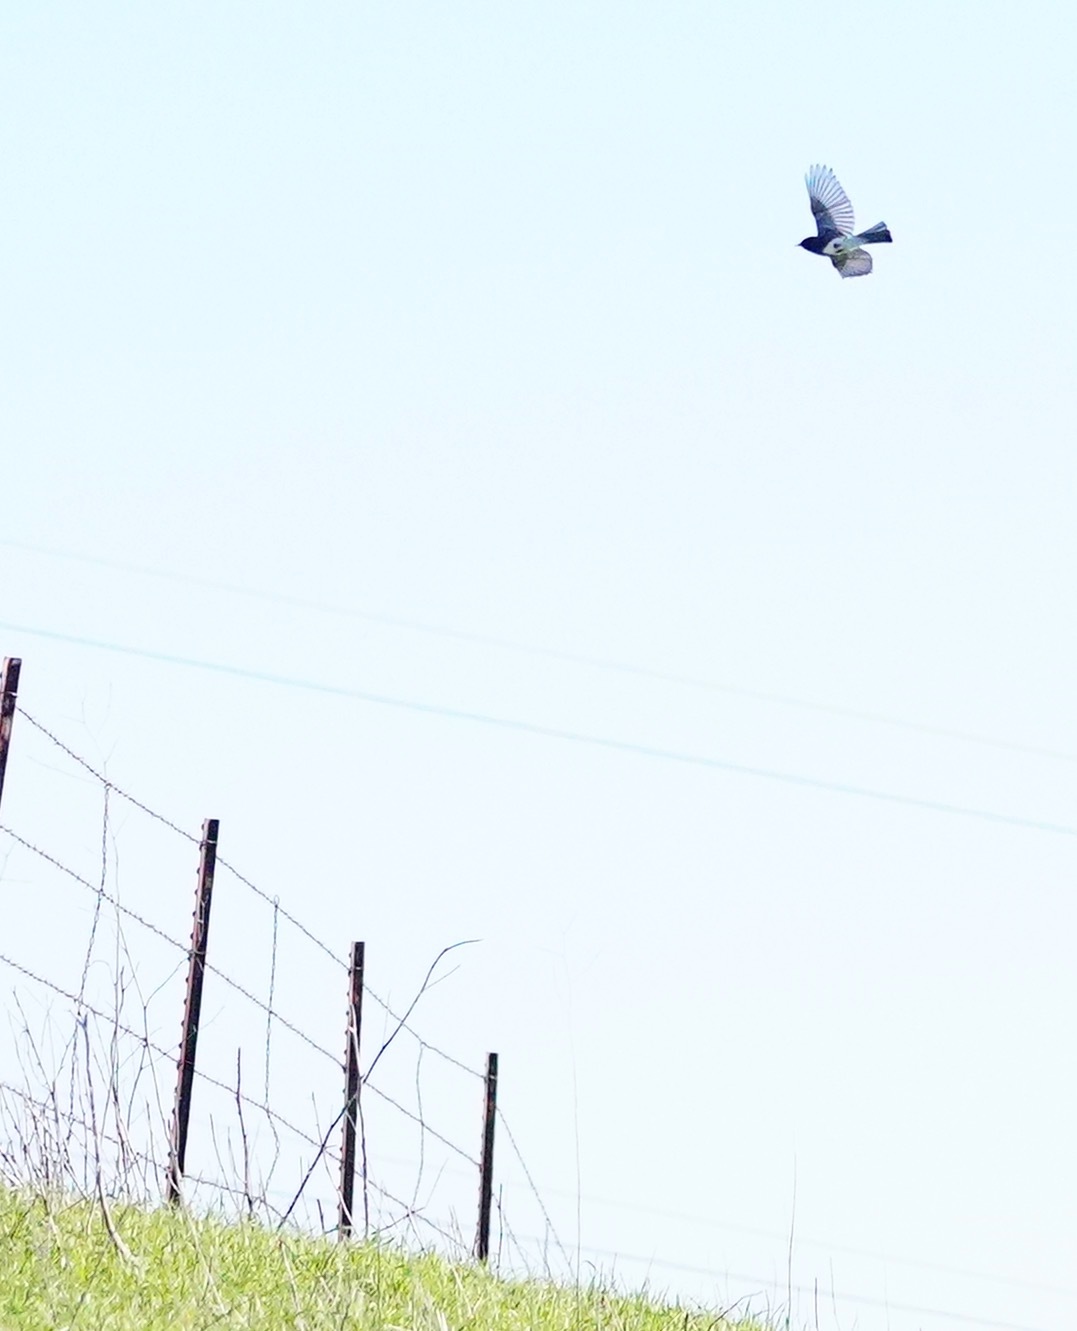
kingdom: Animalia
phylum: Chordata
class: Aves
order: Passeriformes
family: Tyrannidae
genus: Sayornis
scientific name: Sayornis nigricans
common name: Black phoebe
